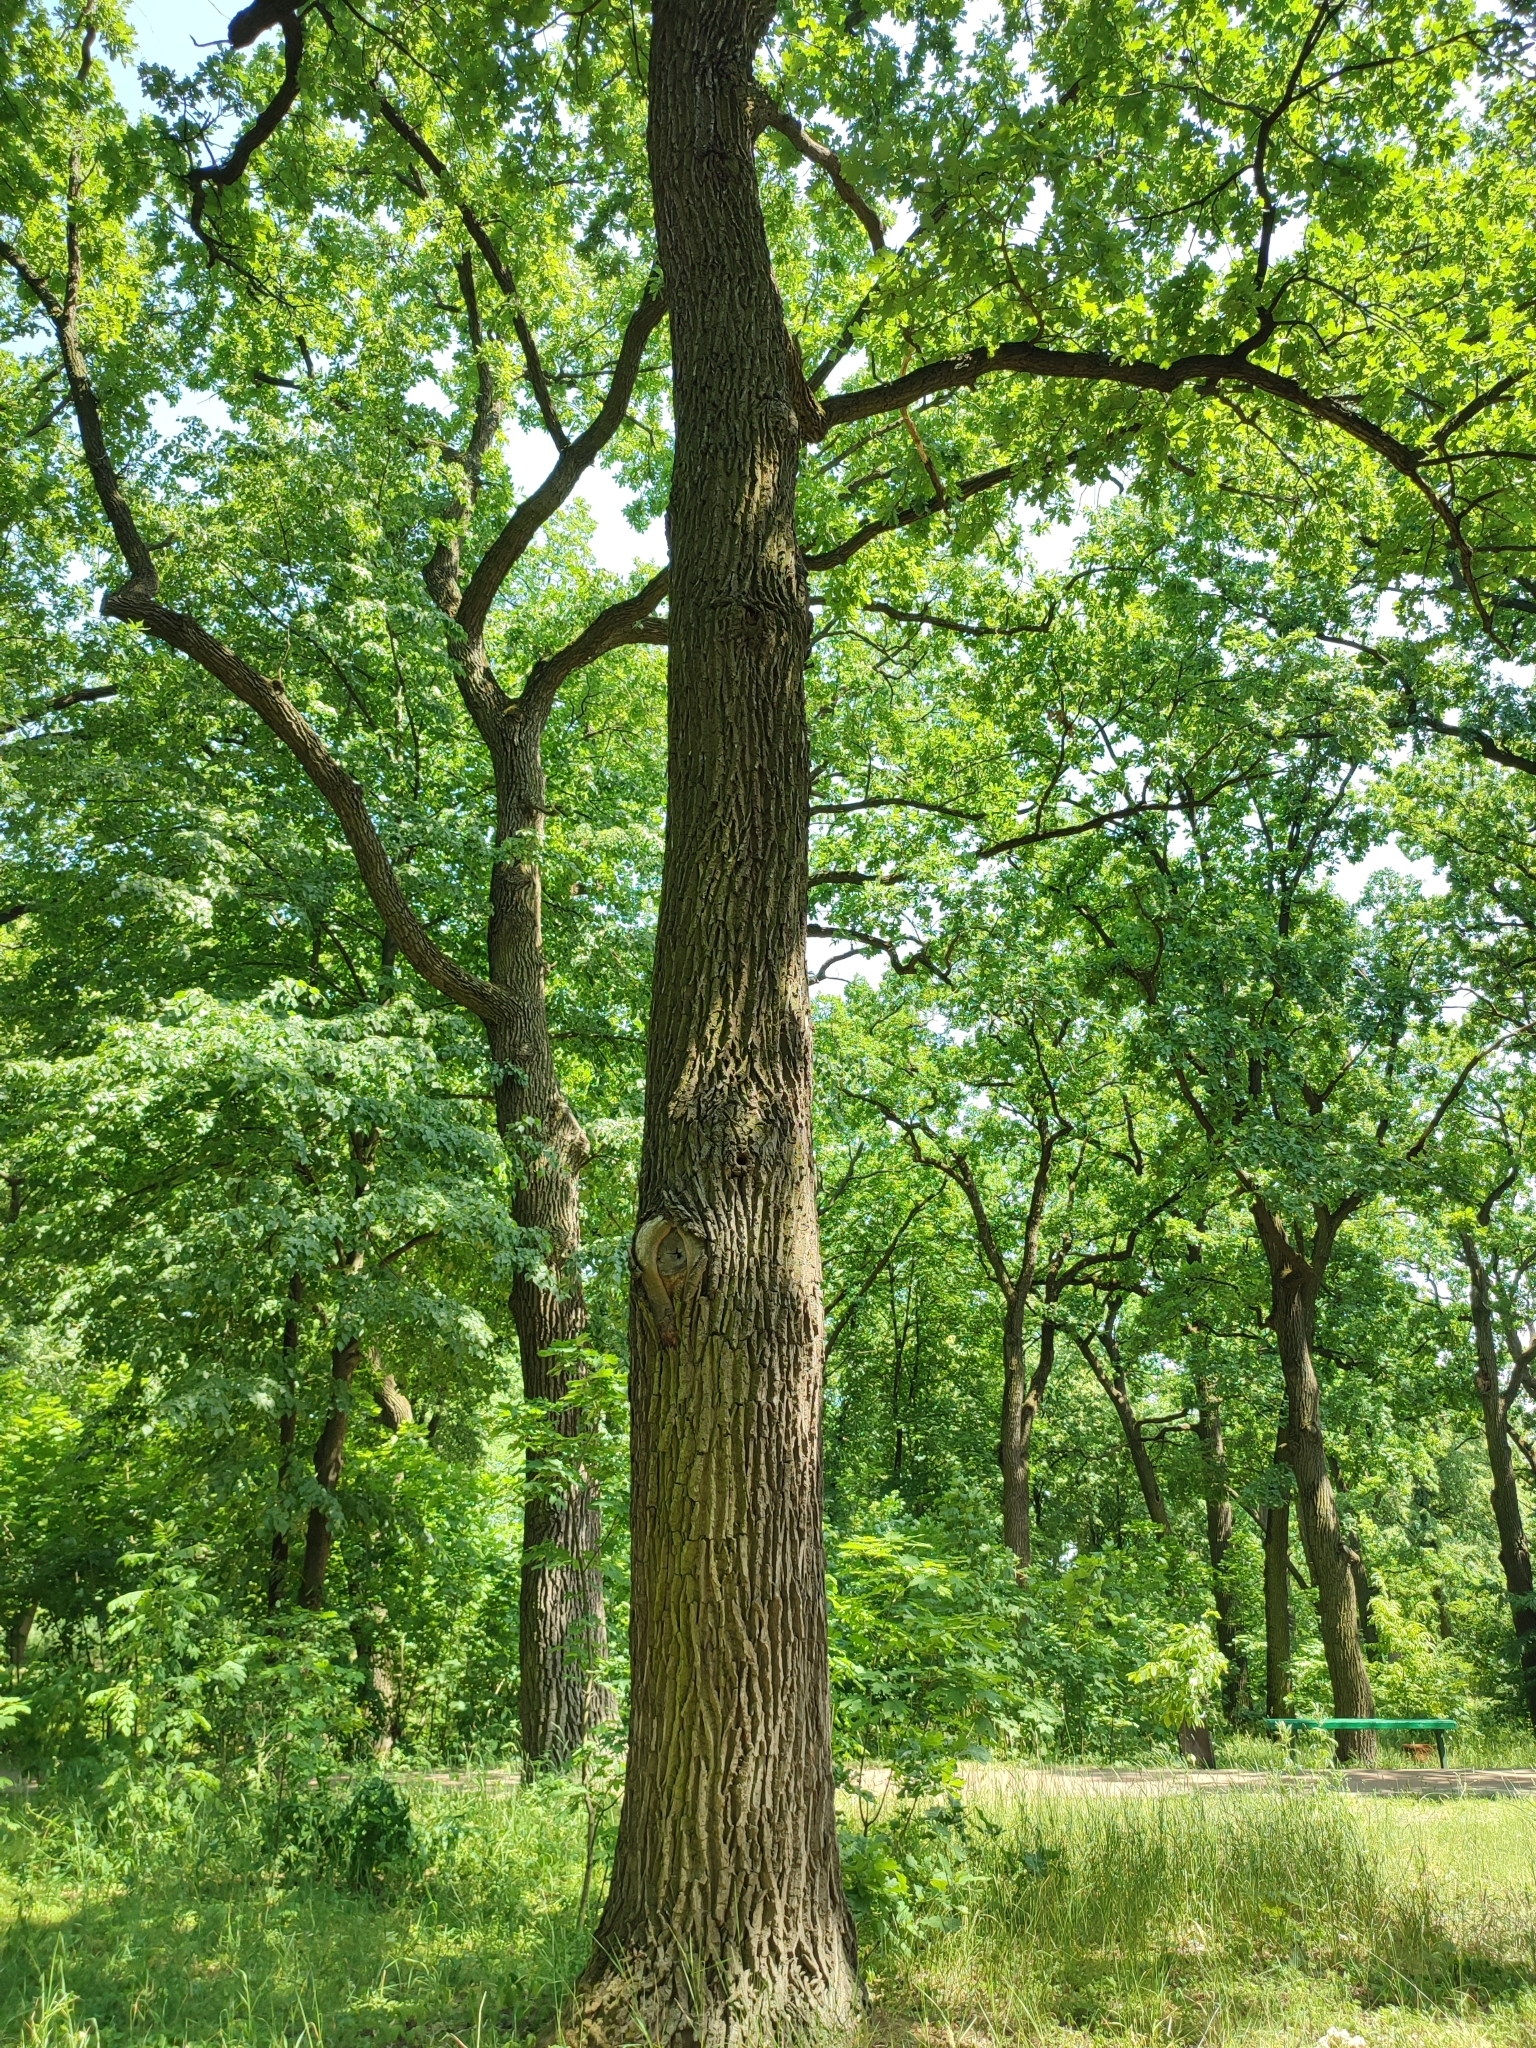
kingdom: Plantae
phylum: Tracheophyta
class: Magnoliopsida
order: Fagales
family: Fagaceae
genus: Quercus
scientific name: Quercus robur
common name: Pedunculate oak
